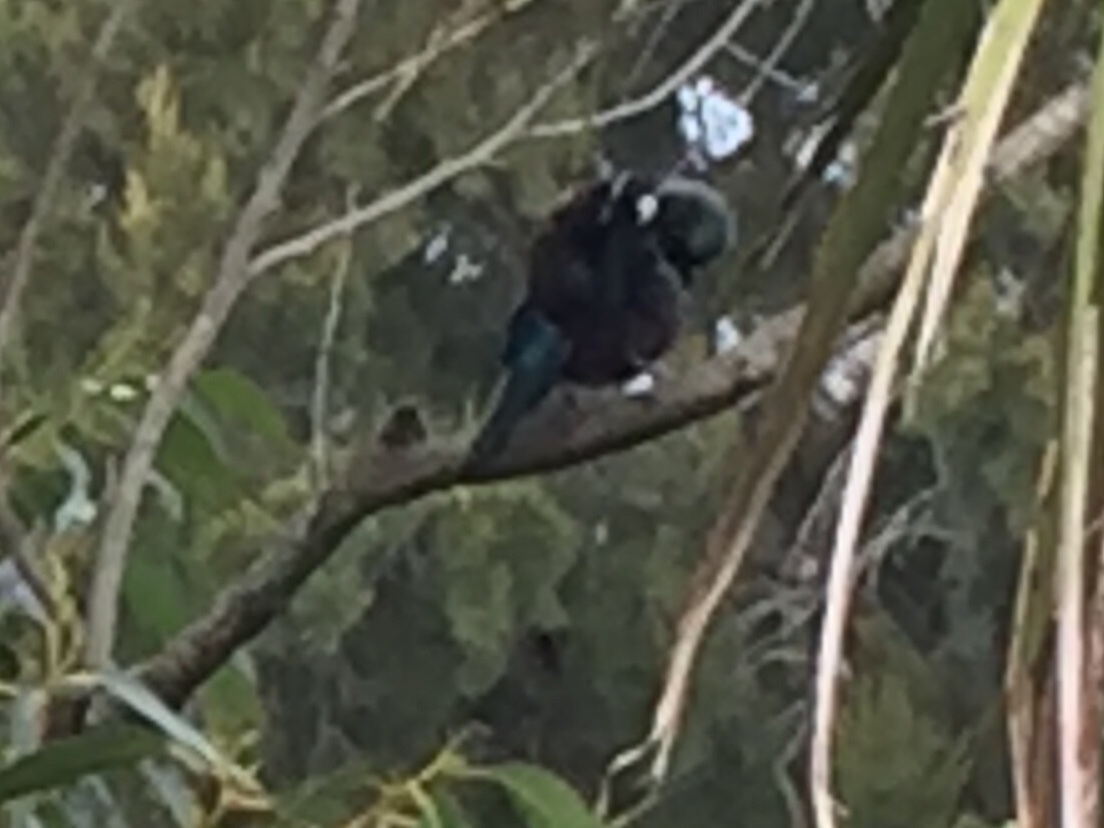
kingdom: Animalia
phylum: Chordata
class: Aves
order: Passeriformes
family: Meliphagidae
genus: Prosthemadera
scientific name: Prosthemadera novaeseelandiae
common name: Tui
